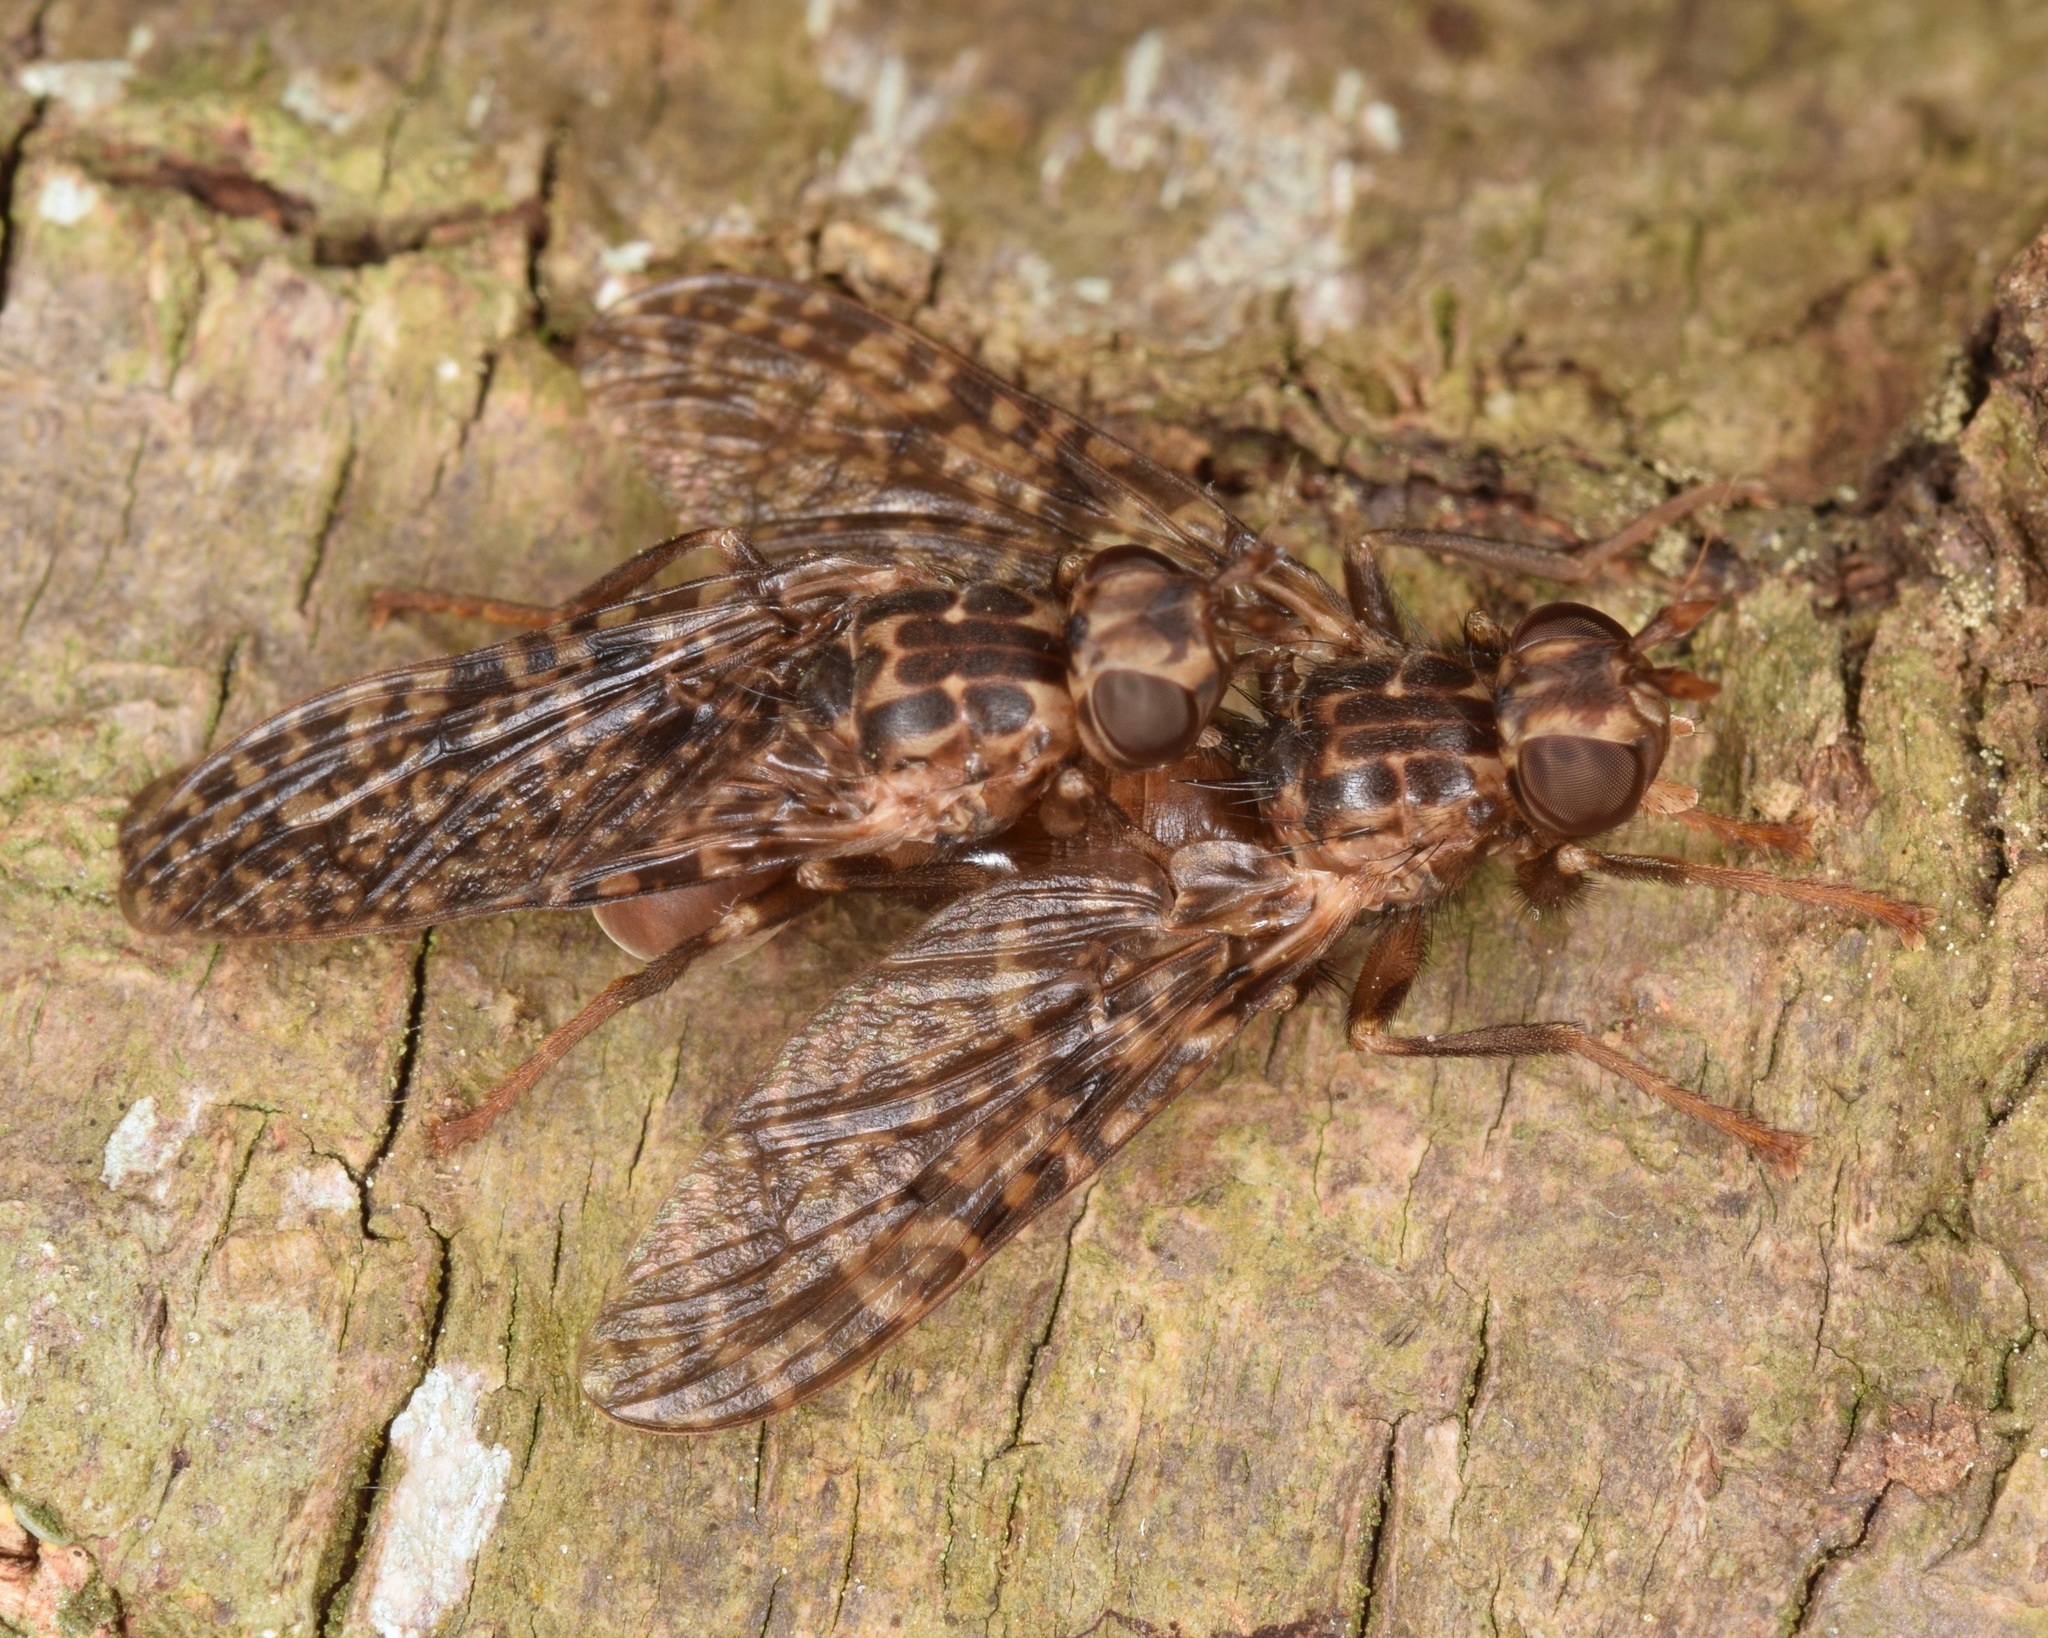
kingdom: Animalia
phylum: Arthropoda
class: Insecta
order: Diptera
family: Pyrgotidae
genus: Pyrgota
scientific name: Pyrgota valida
